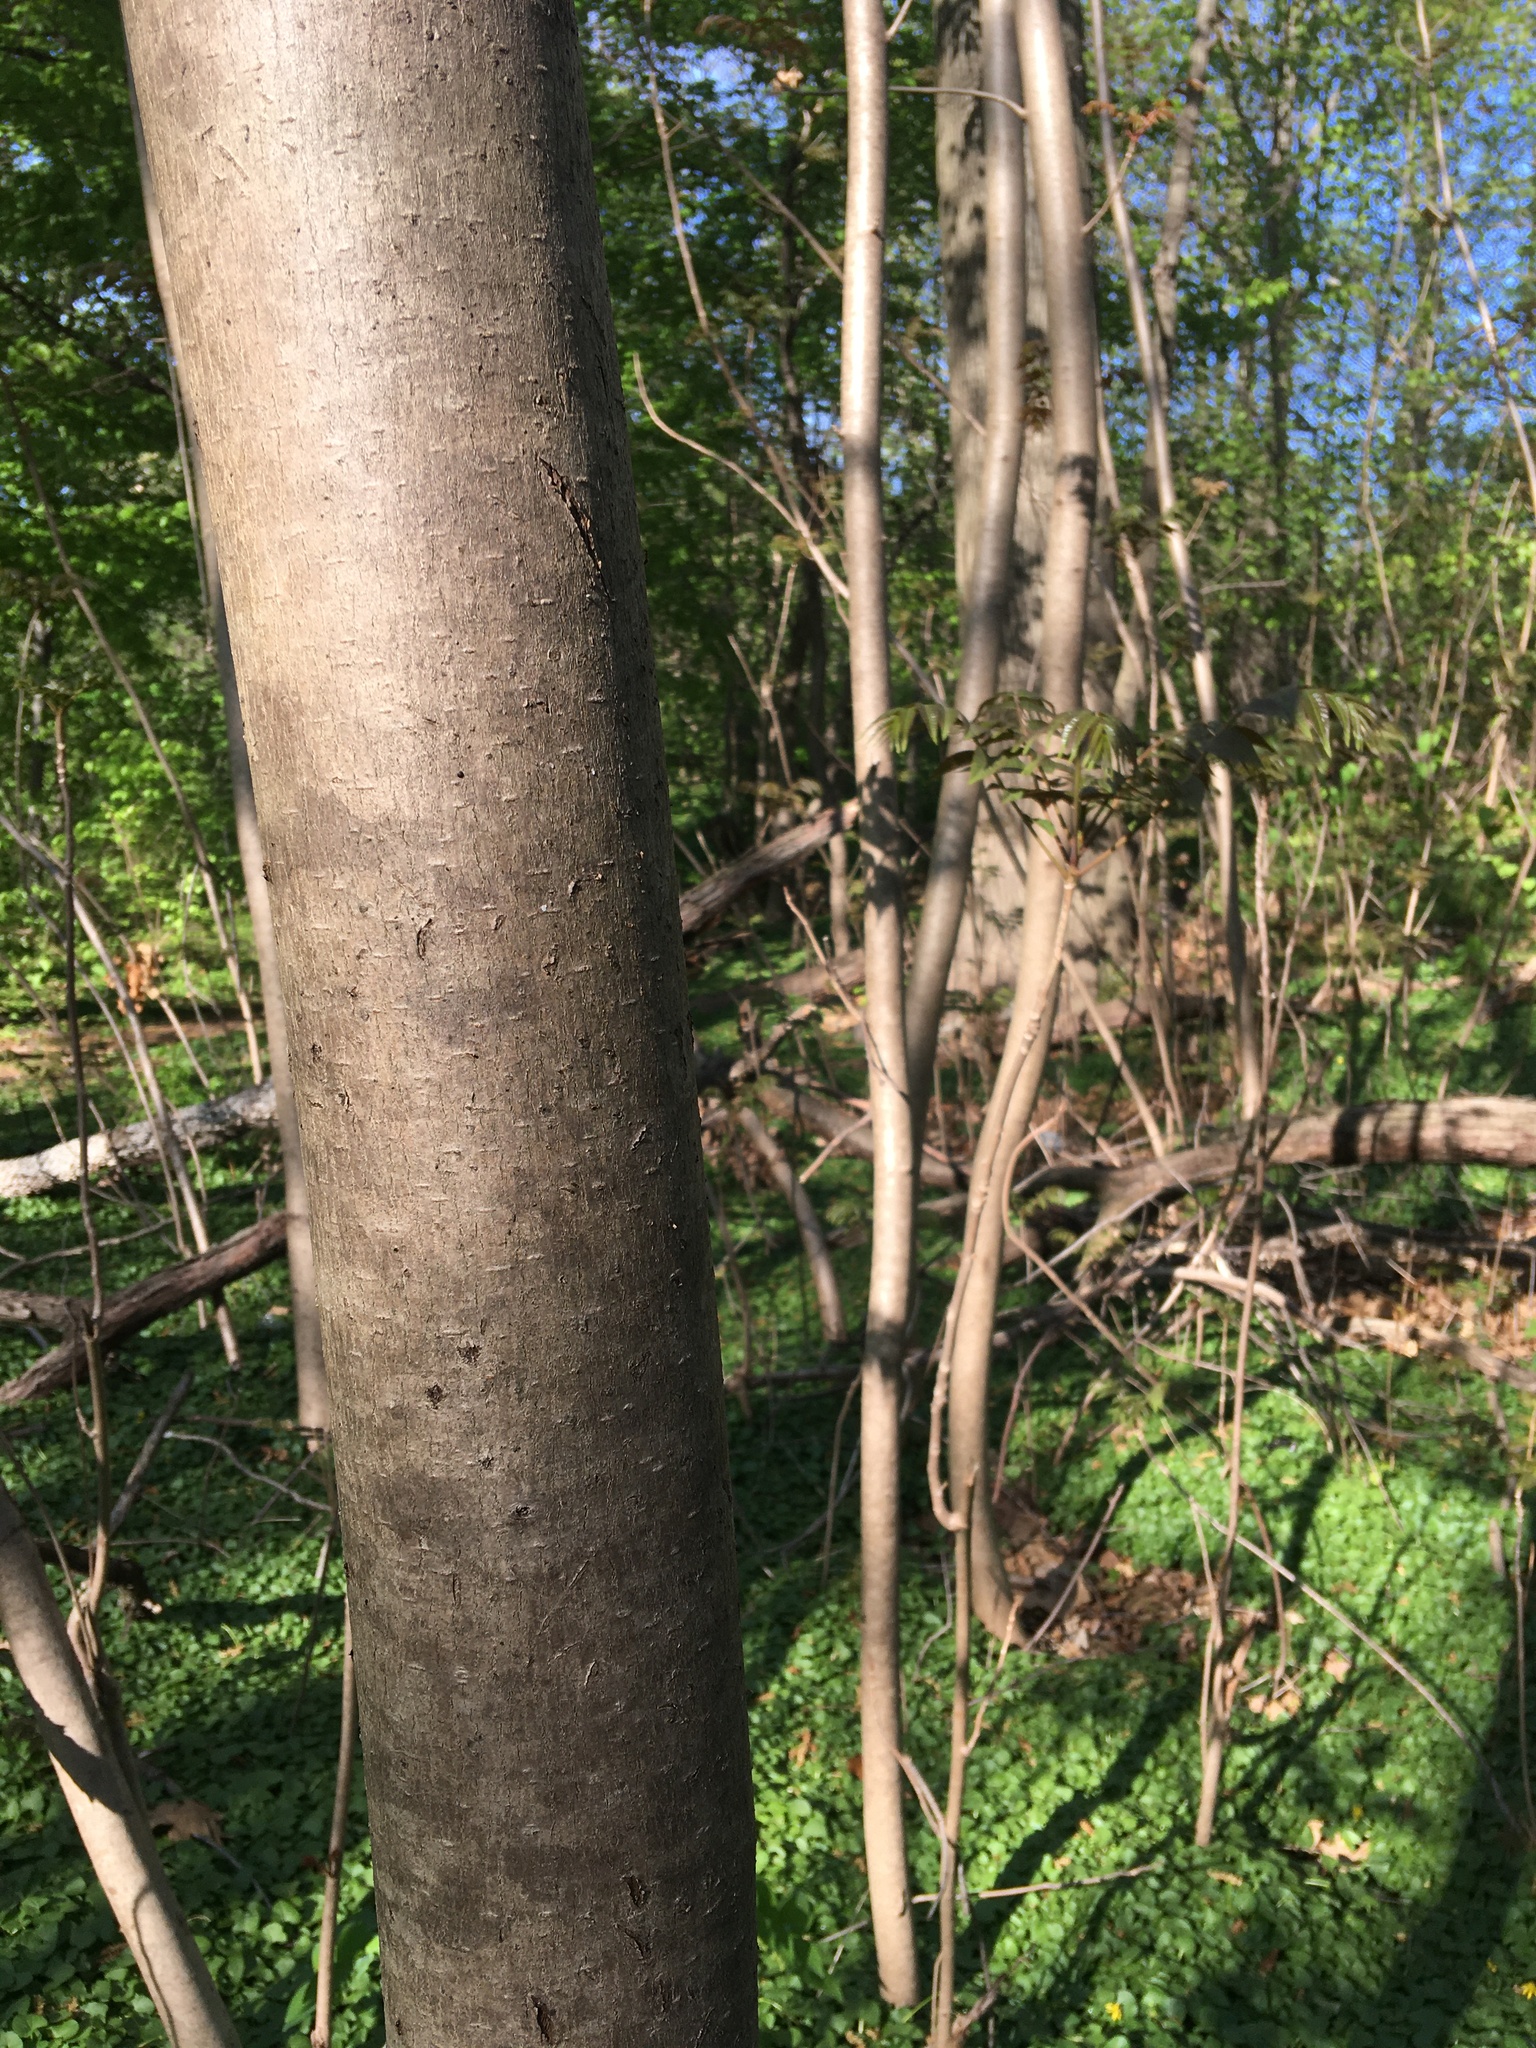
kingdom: Plantae
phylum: Tracheophyta
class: Magnoliopsida
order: Sapindales
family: Meliaceae
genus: Toona
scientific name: Toona sinensis
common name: Red toon
